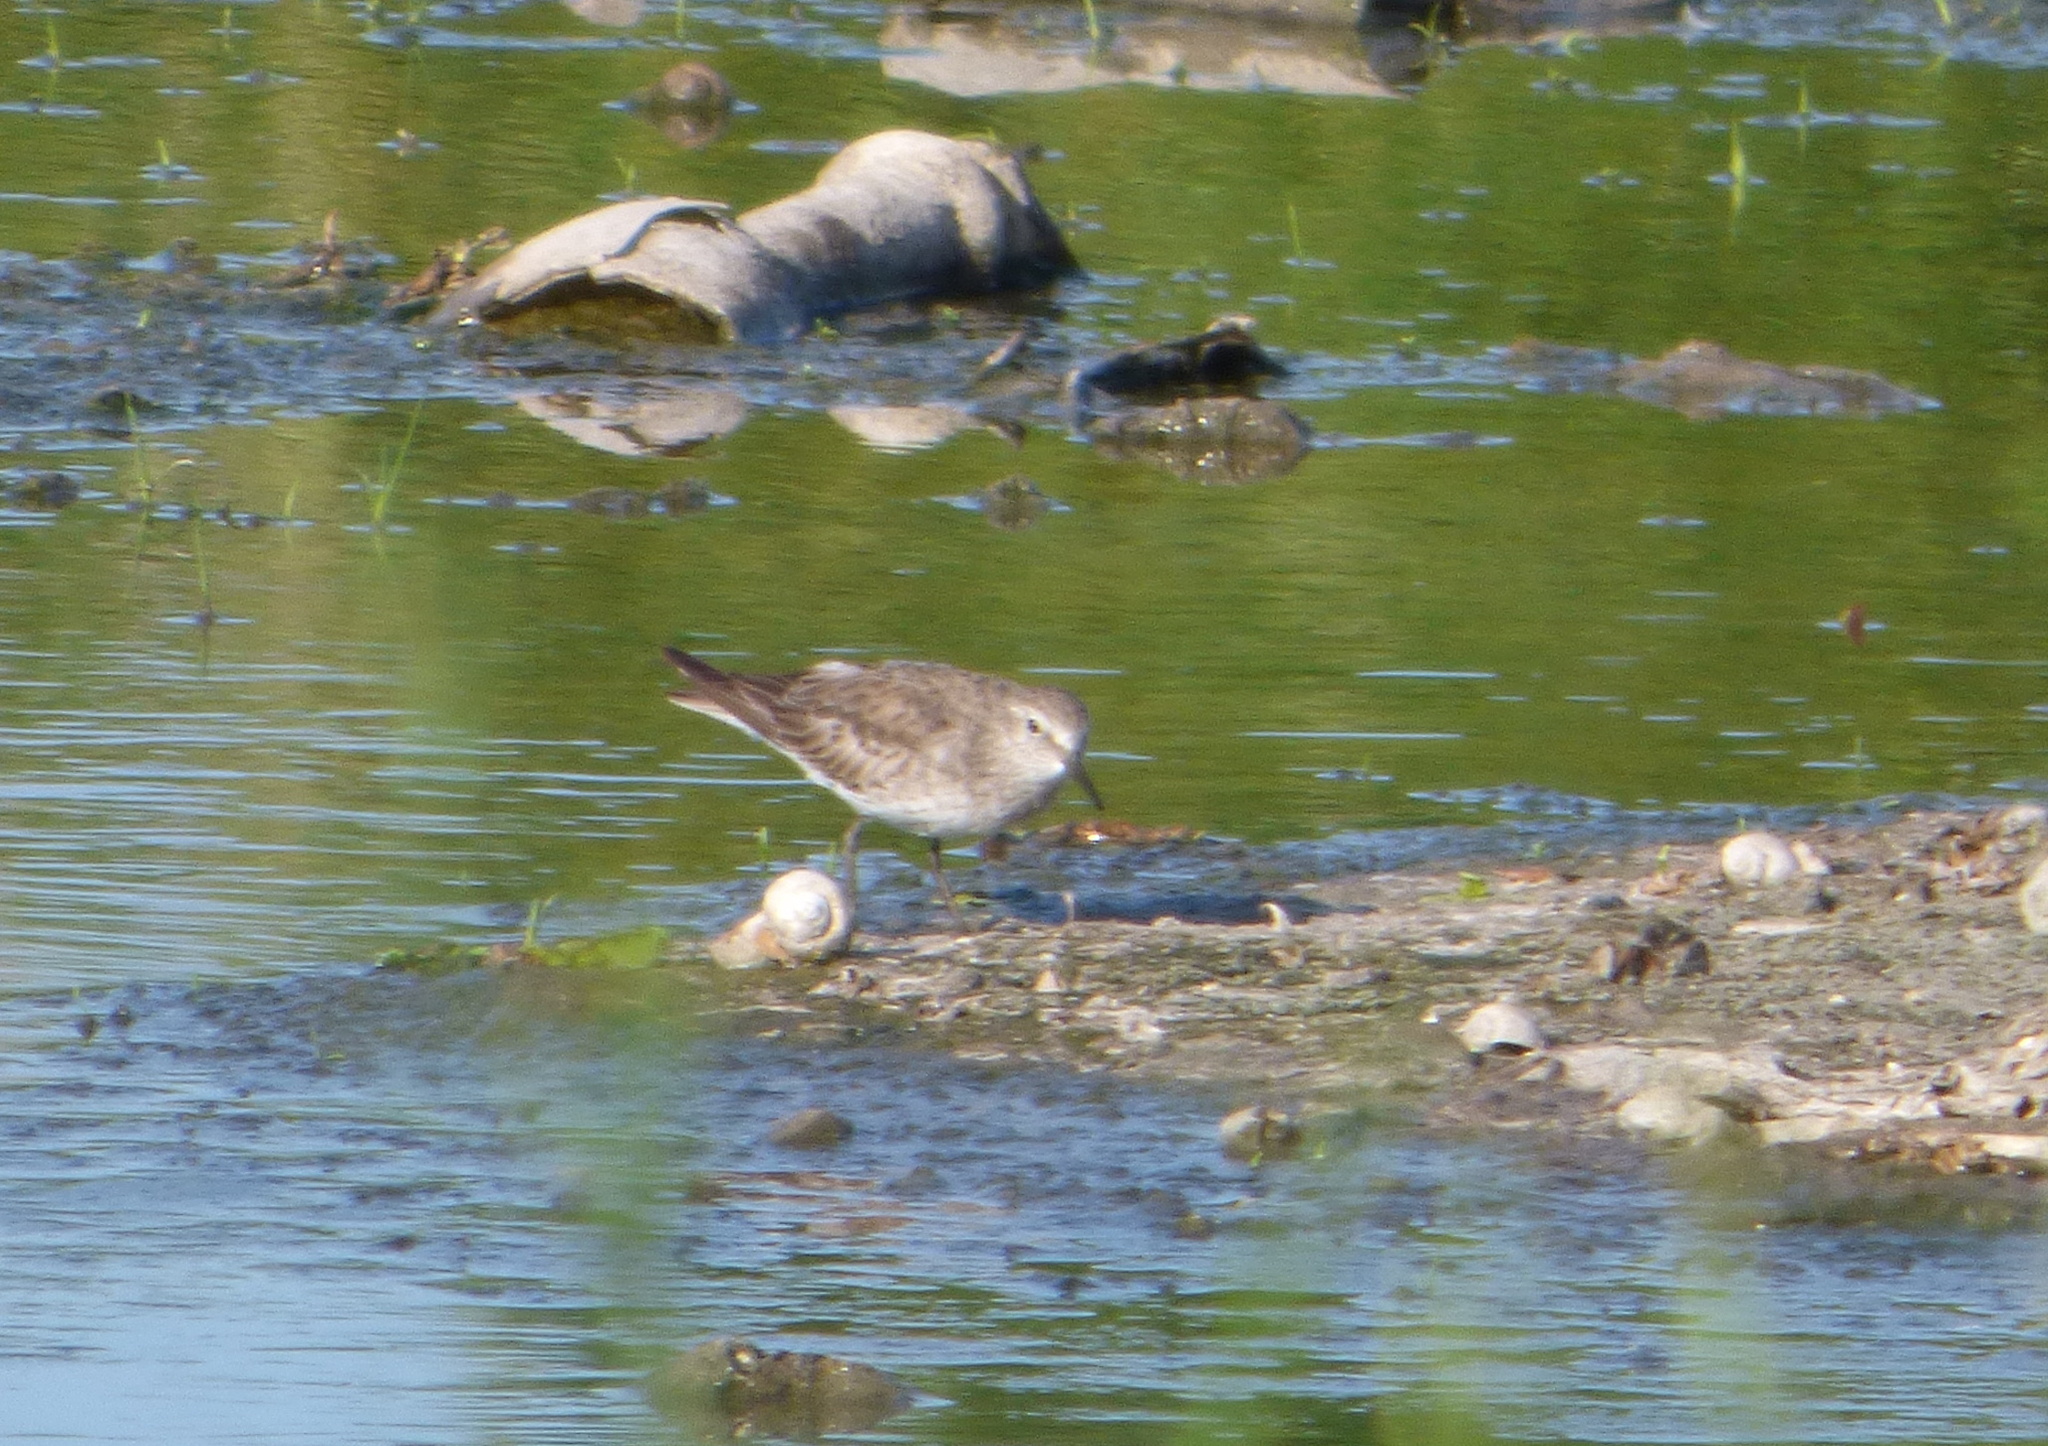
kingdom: Animalia
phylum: Chordata
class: Aves
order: Charadriiformes
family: Scolopacidae
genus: Calidris
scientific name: Calidris fuscicollis
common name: White-rumped sandpiper
